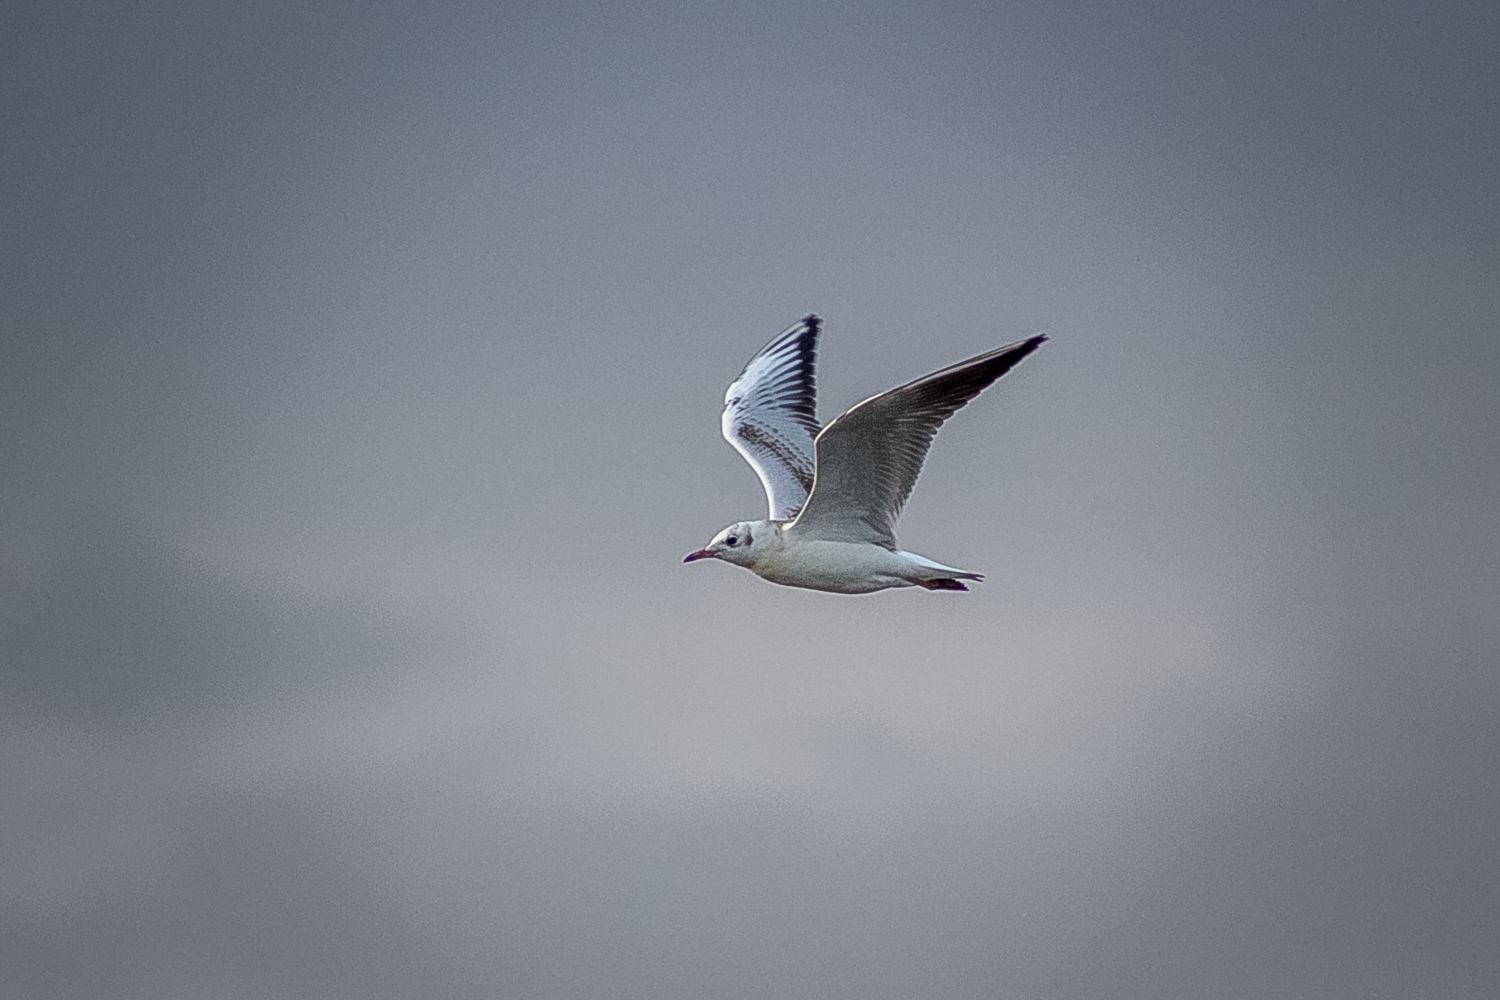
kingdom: Animalia
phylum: Chordata
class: Aves
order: Charadriiformes
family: Laridae
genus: Chroicocephalus
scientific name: Chroicocephalus ridibundus
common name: Black-headed gull
